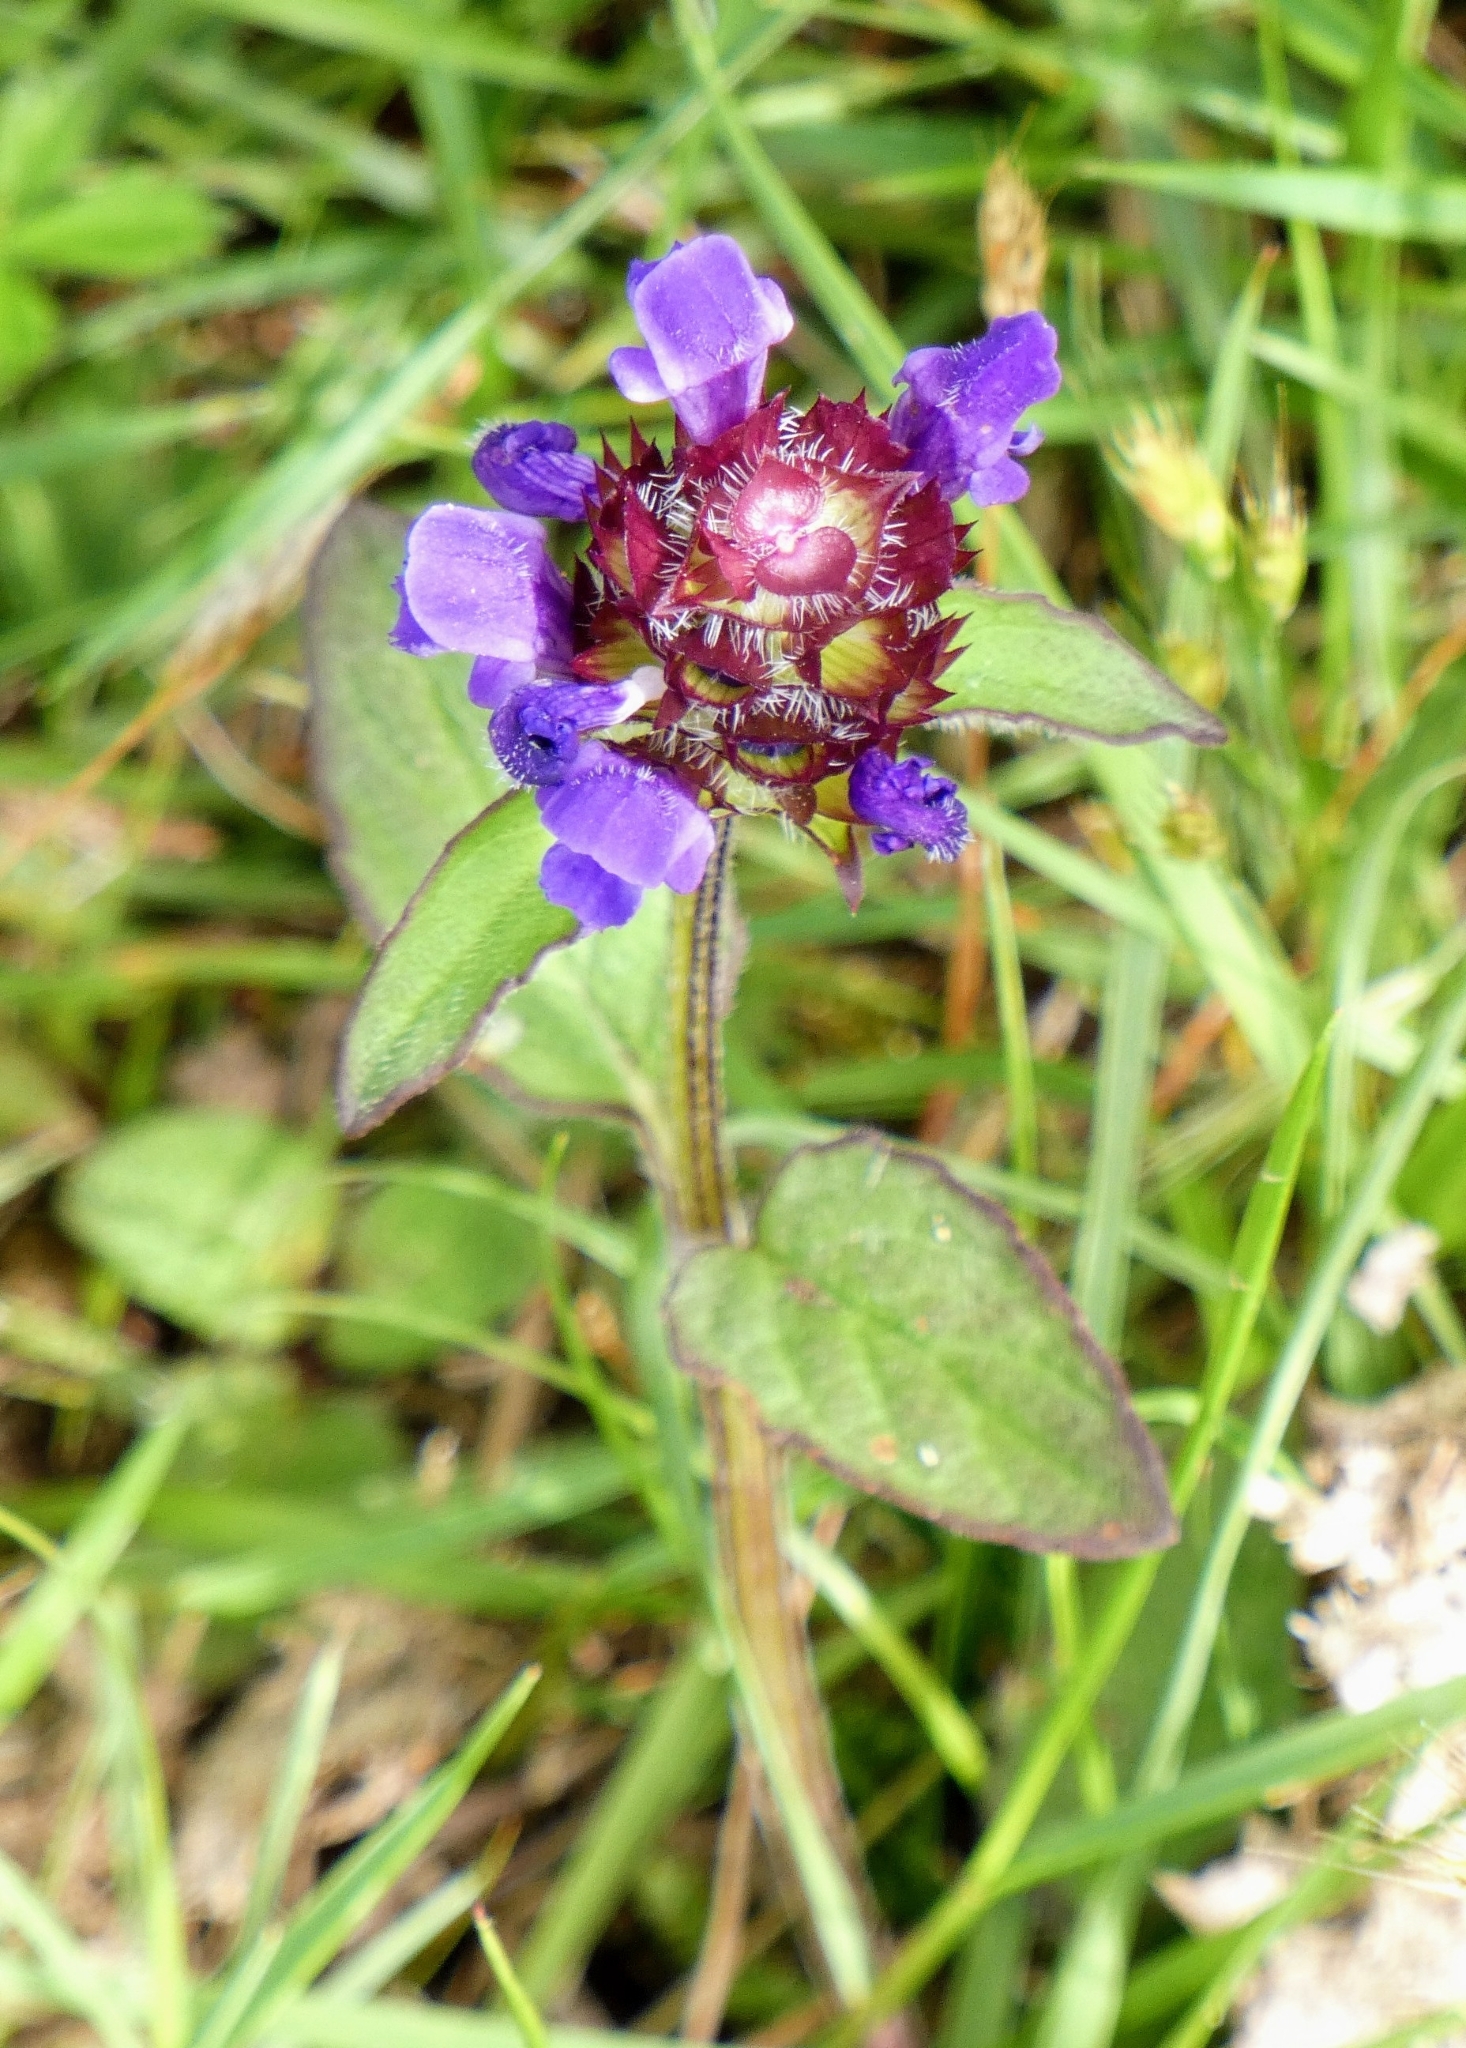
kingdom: Plantae
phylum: Tracheophyta
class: Magnoliopsida
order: Lamiales
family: Lamiaceae
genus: Prunella
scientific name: Prunella vulgaris
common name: Heal-all
